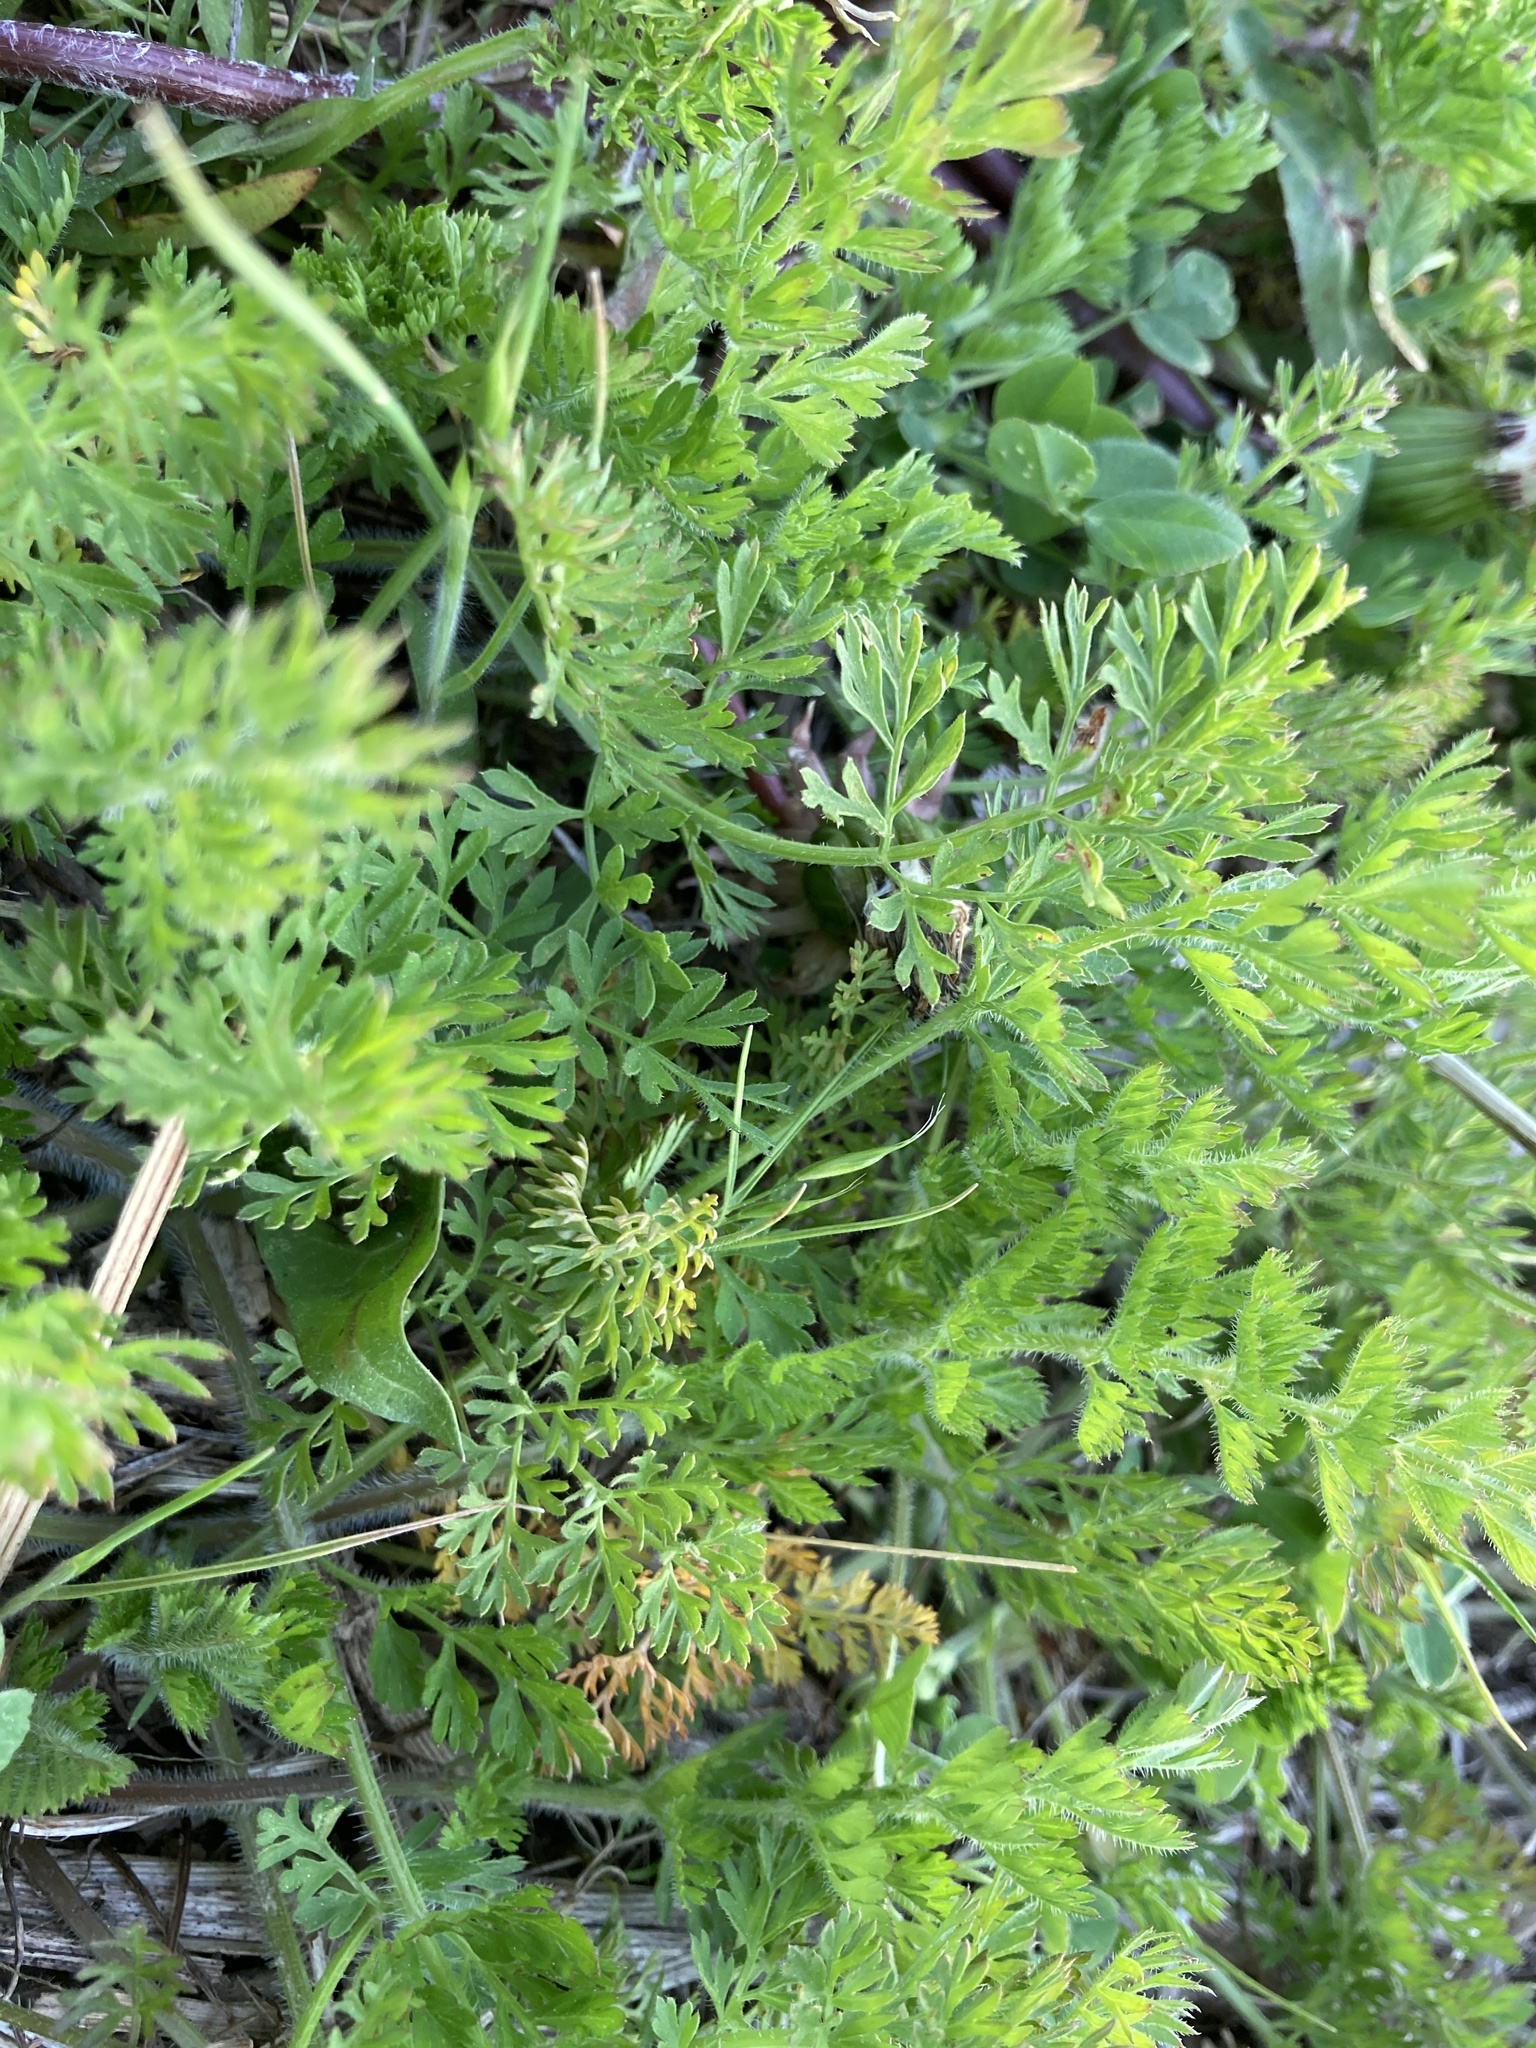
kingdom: Plantae
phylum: Tracheophyta
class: Magnoliopsida
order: Apiales
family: Apiaceae
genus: Daucus
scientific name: Daucus carota
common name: Wild carrot
